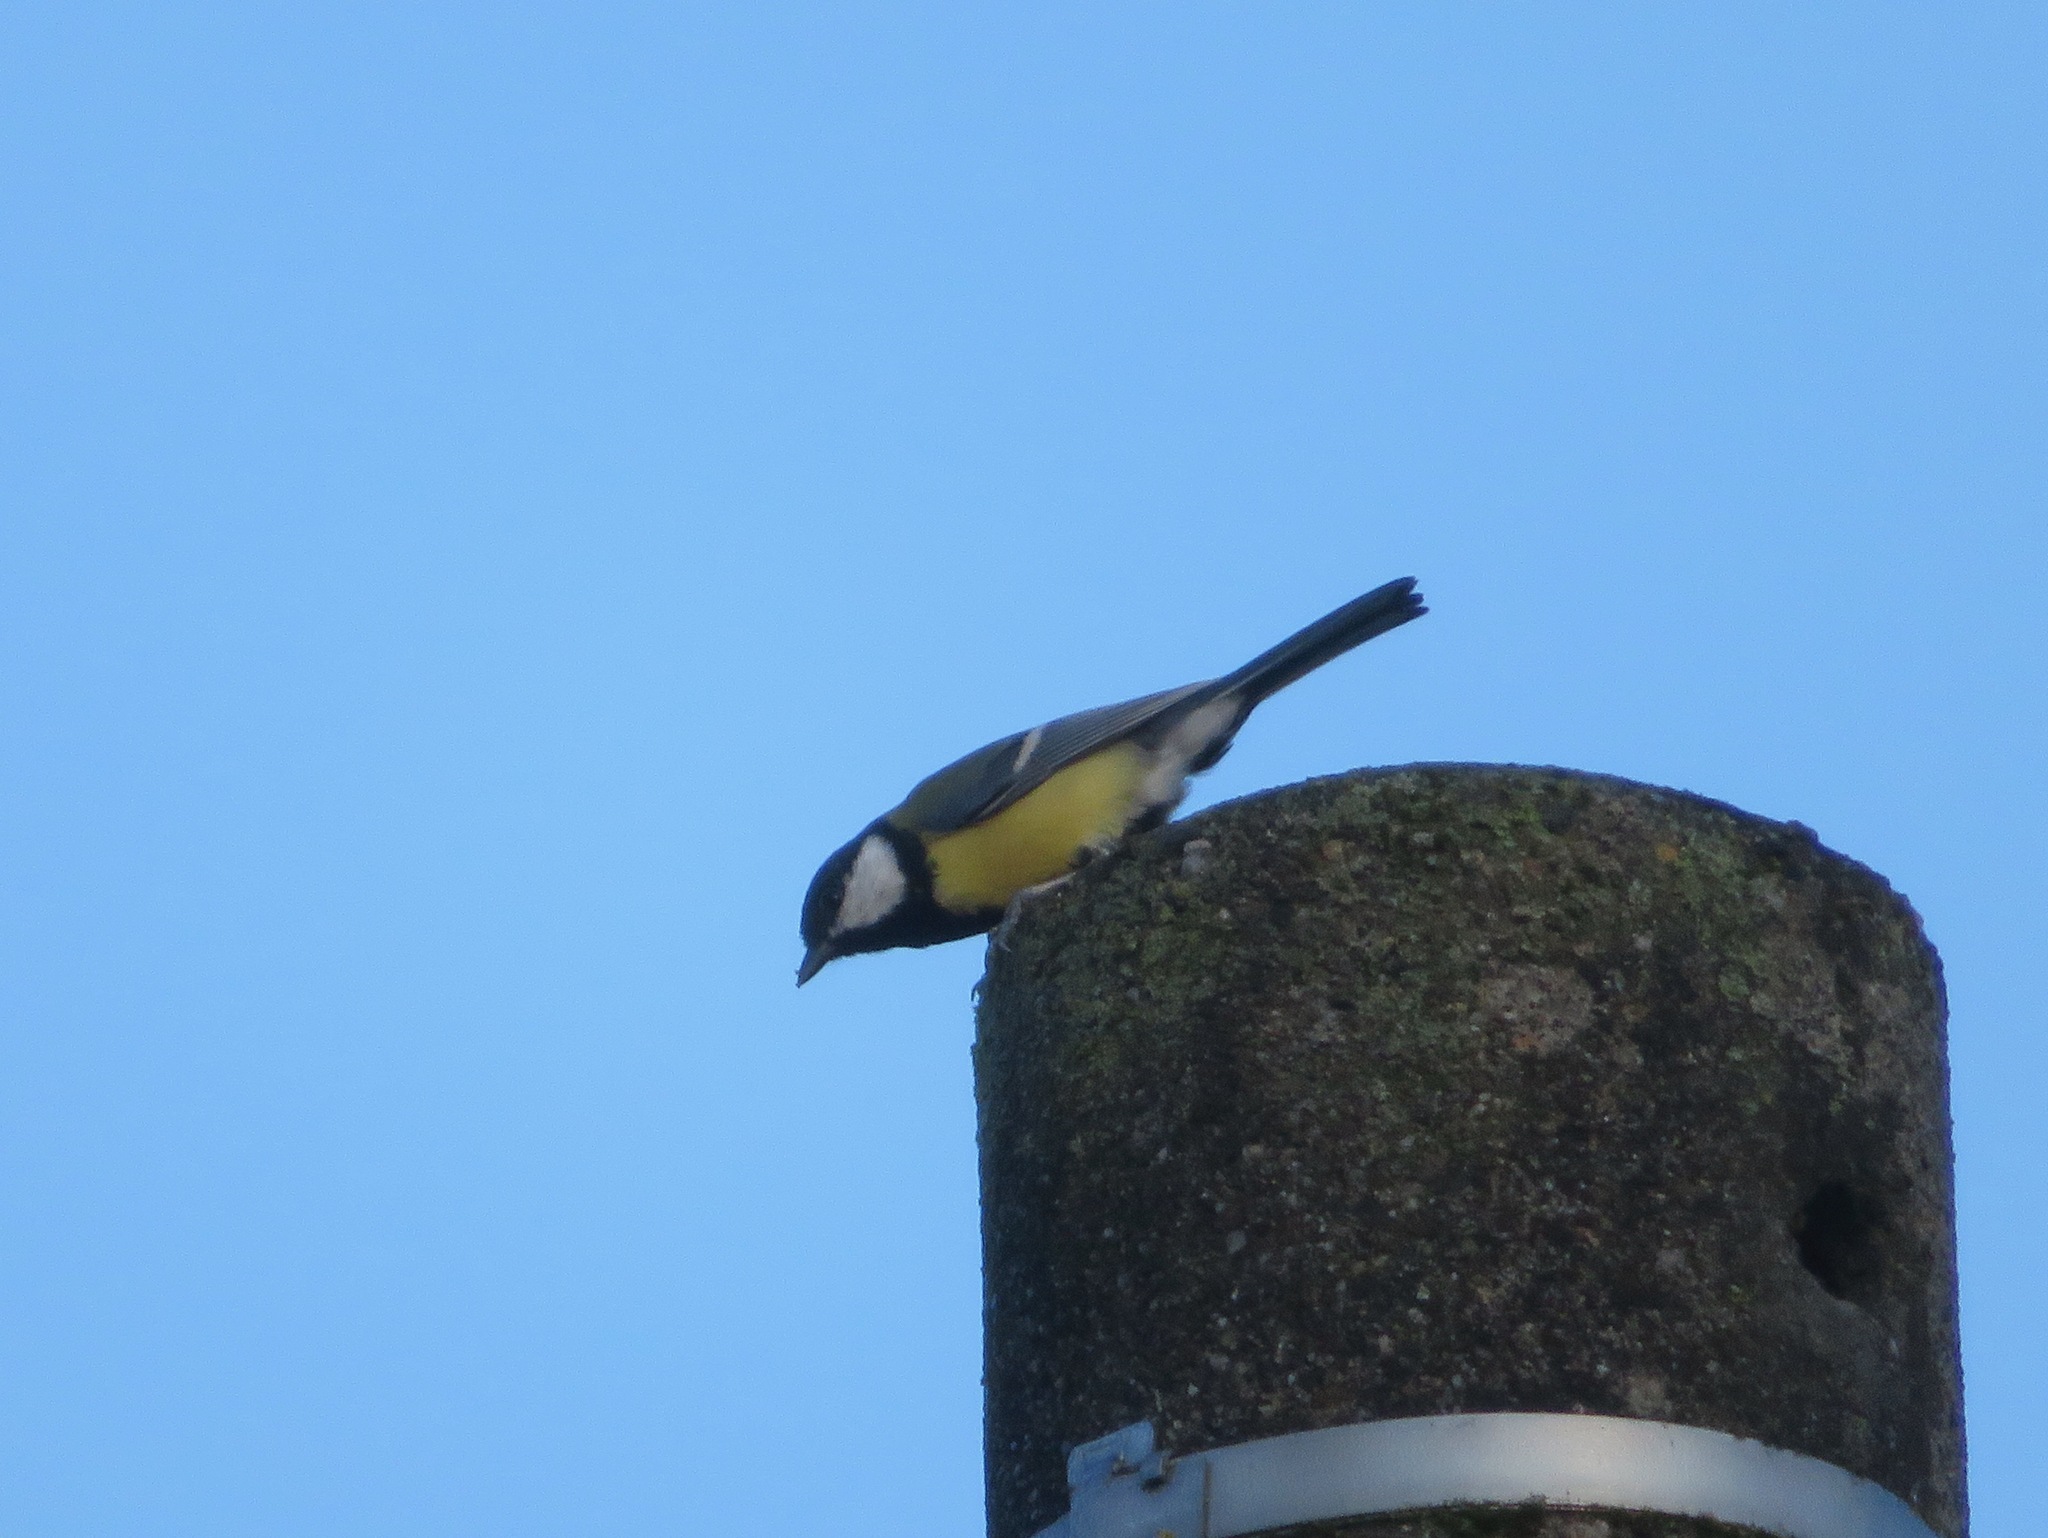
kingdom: Animalia
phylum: Chordata
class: Aves
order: Passeriformes
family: Paridae
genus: Parus
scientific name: Parus major
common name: Great tit
